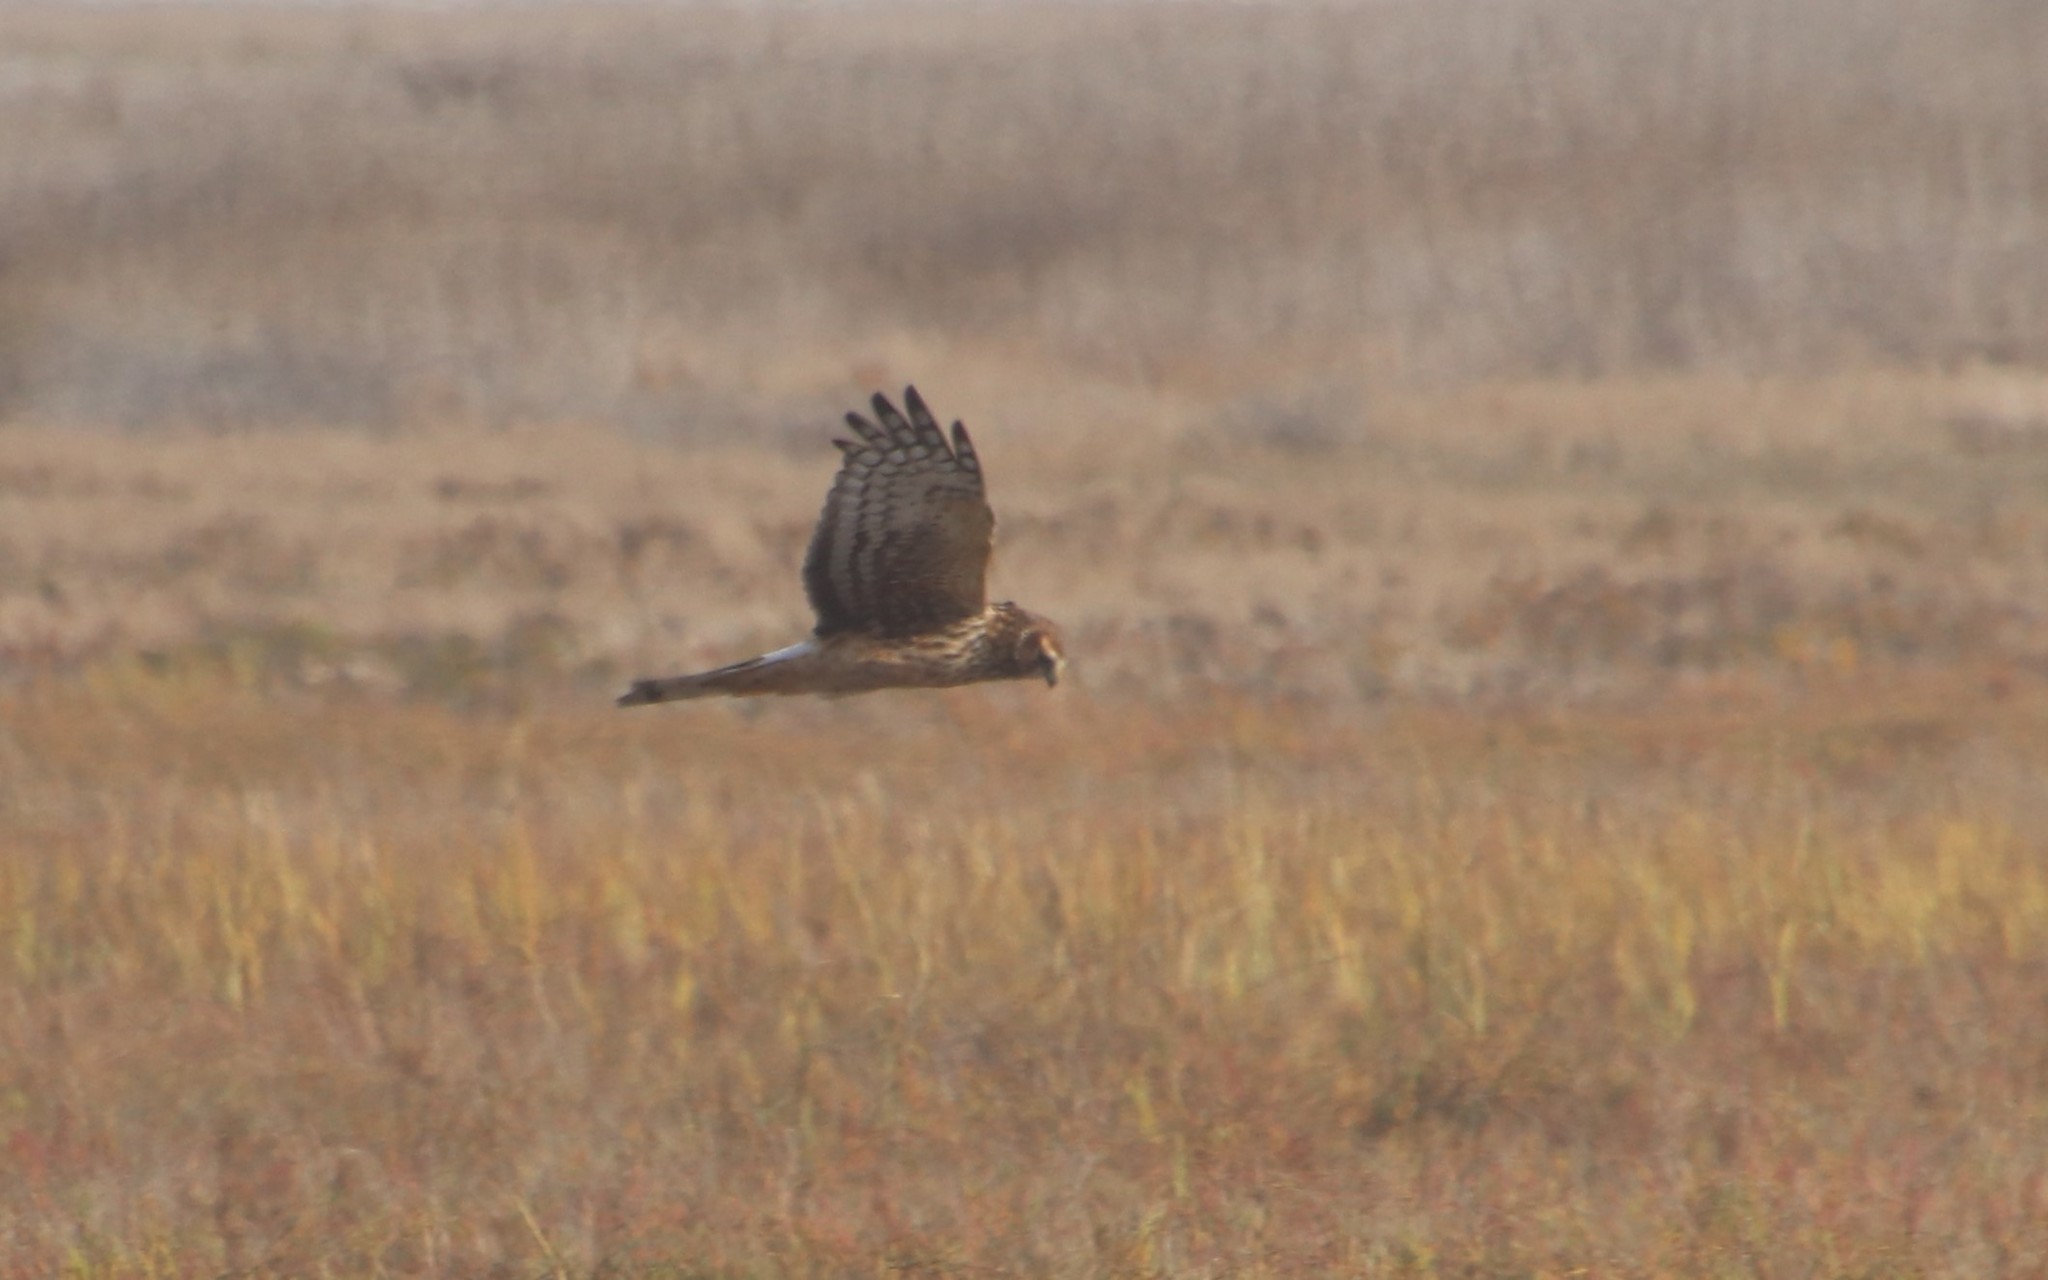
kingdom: Animalia
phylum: Chordata
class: Aves
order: Accipitriformes
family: Accipitridae
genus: Circus
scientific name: Circus cyaneus
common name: Hen harrier
